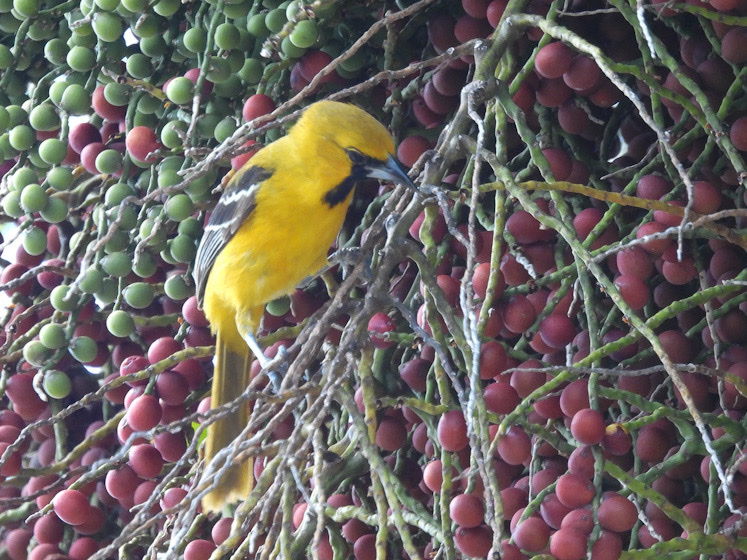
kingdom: Animalia
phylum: Chordata
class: Aves
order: Passeriformes
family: Icteridae
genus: Icterus
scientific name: Icterus auratus
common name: Orange oriole
